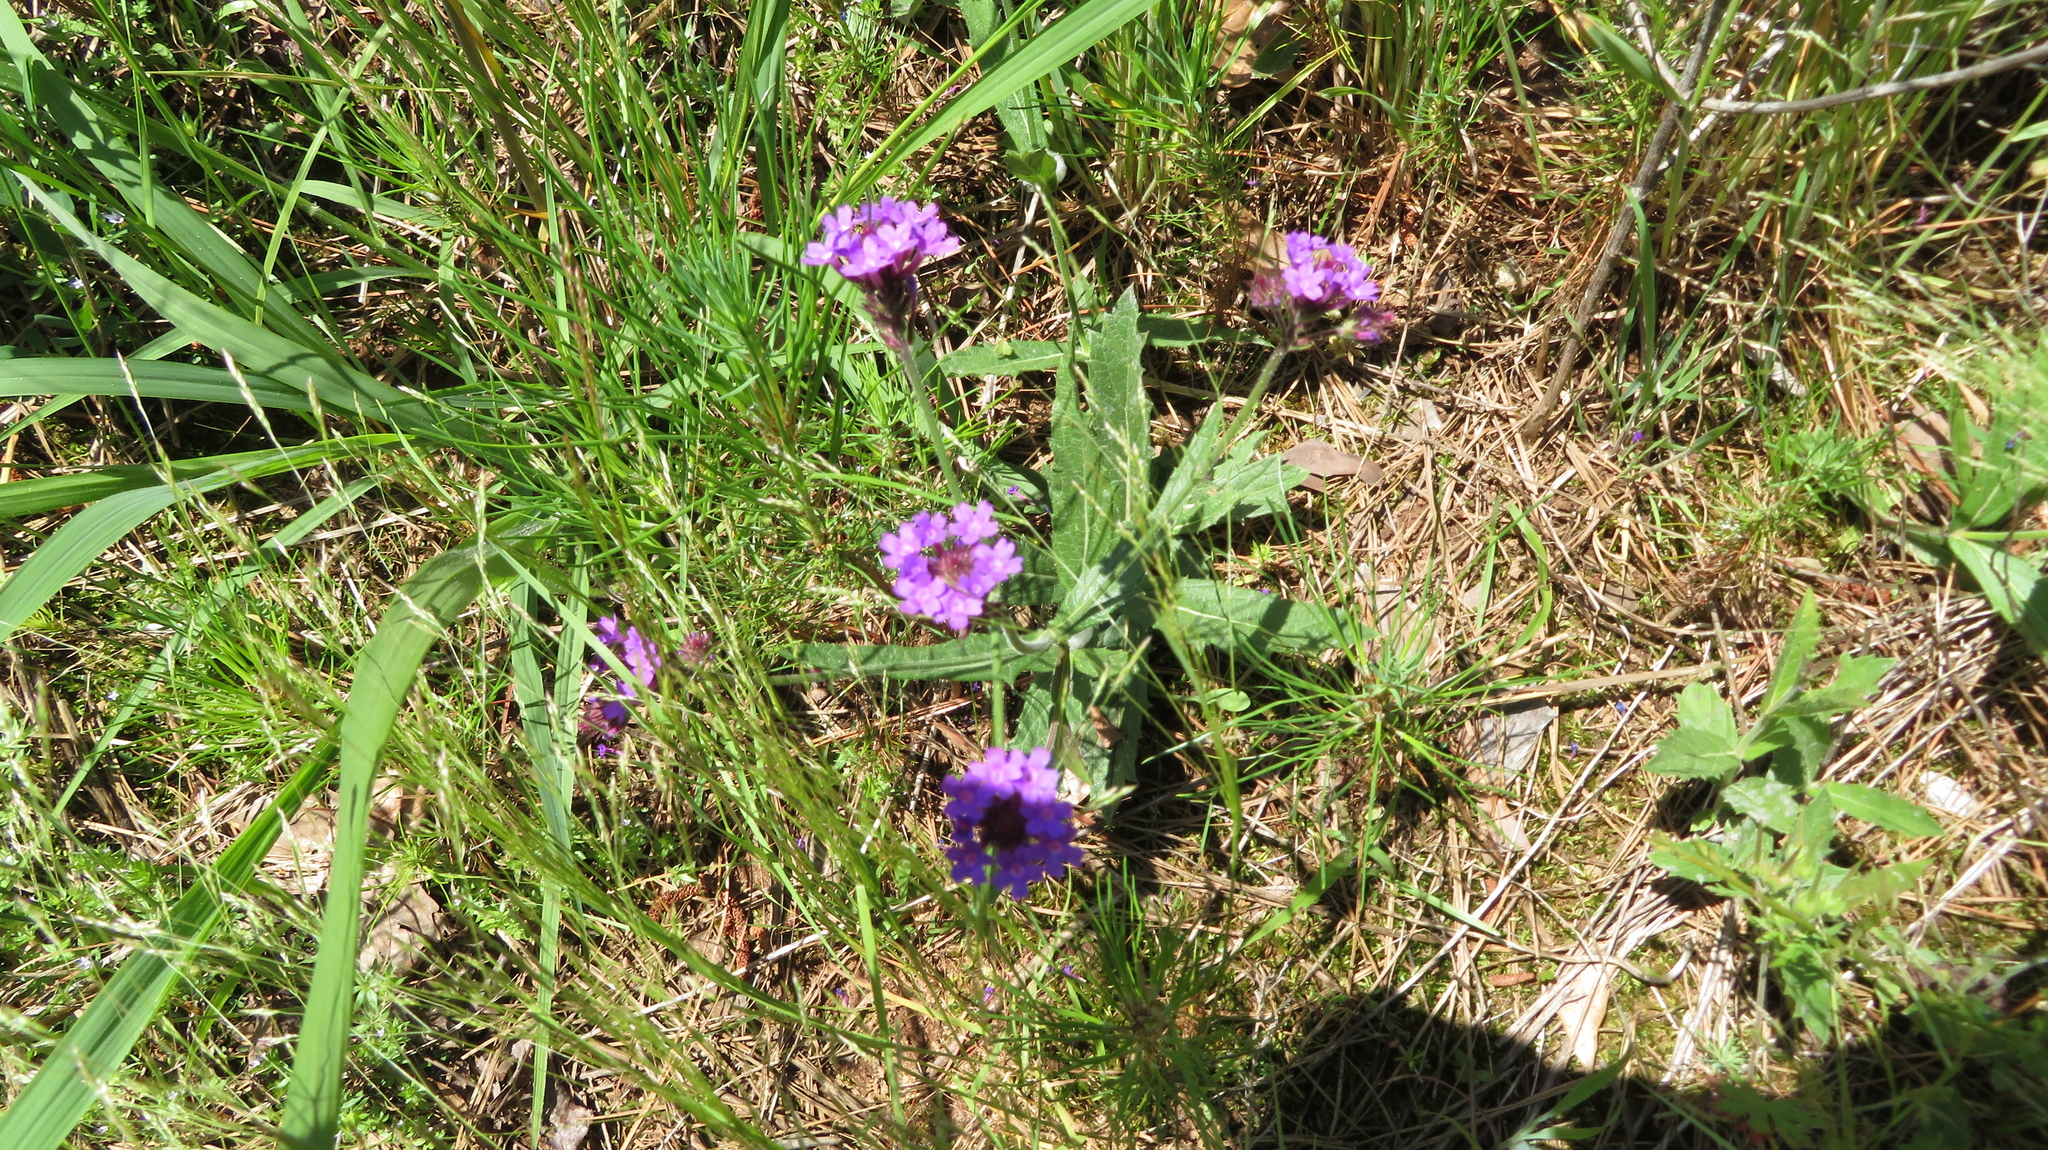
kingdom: Plantae
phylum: Tracheophyta
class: Magnoliopsida
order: Lamiales
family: Verbenaceae
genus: Verbena
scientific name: Verbena rigida
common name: Slender vervain
